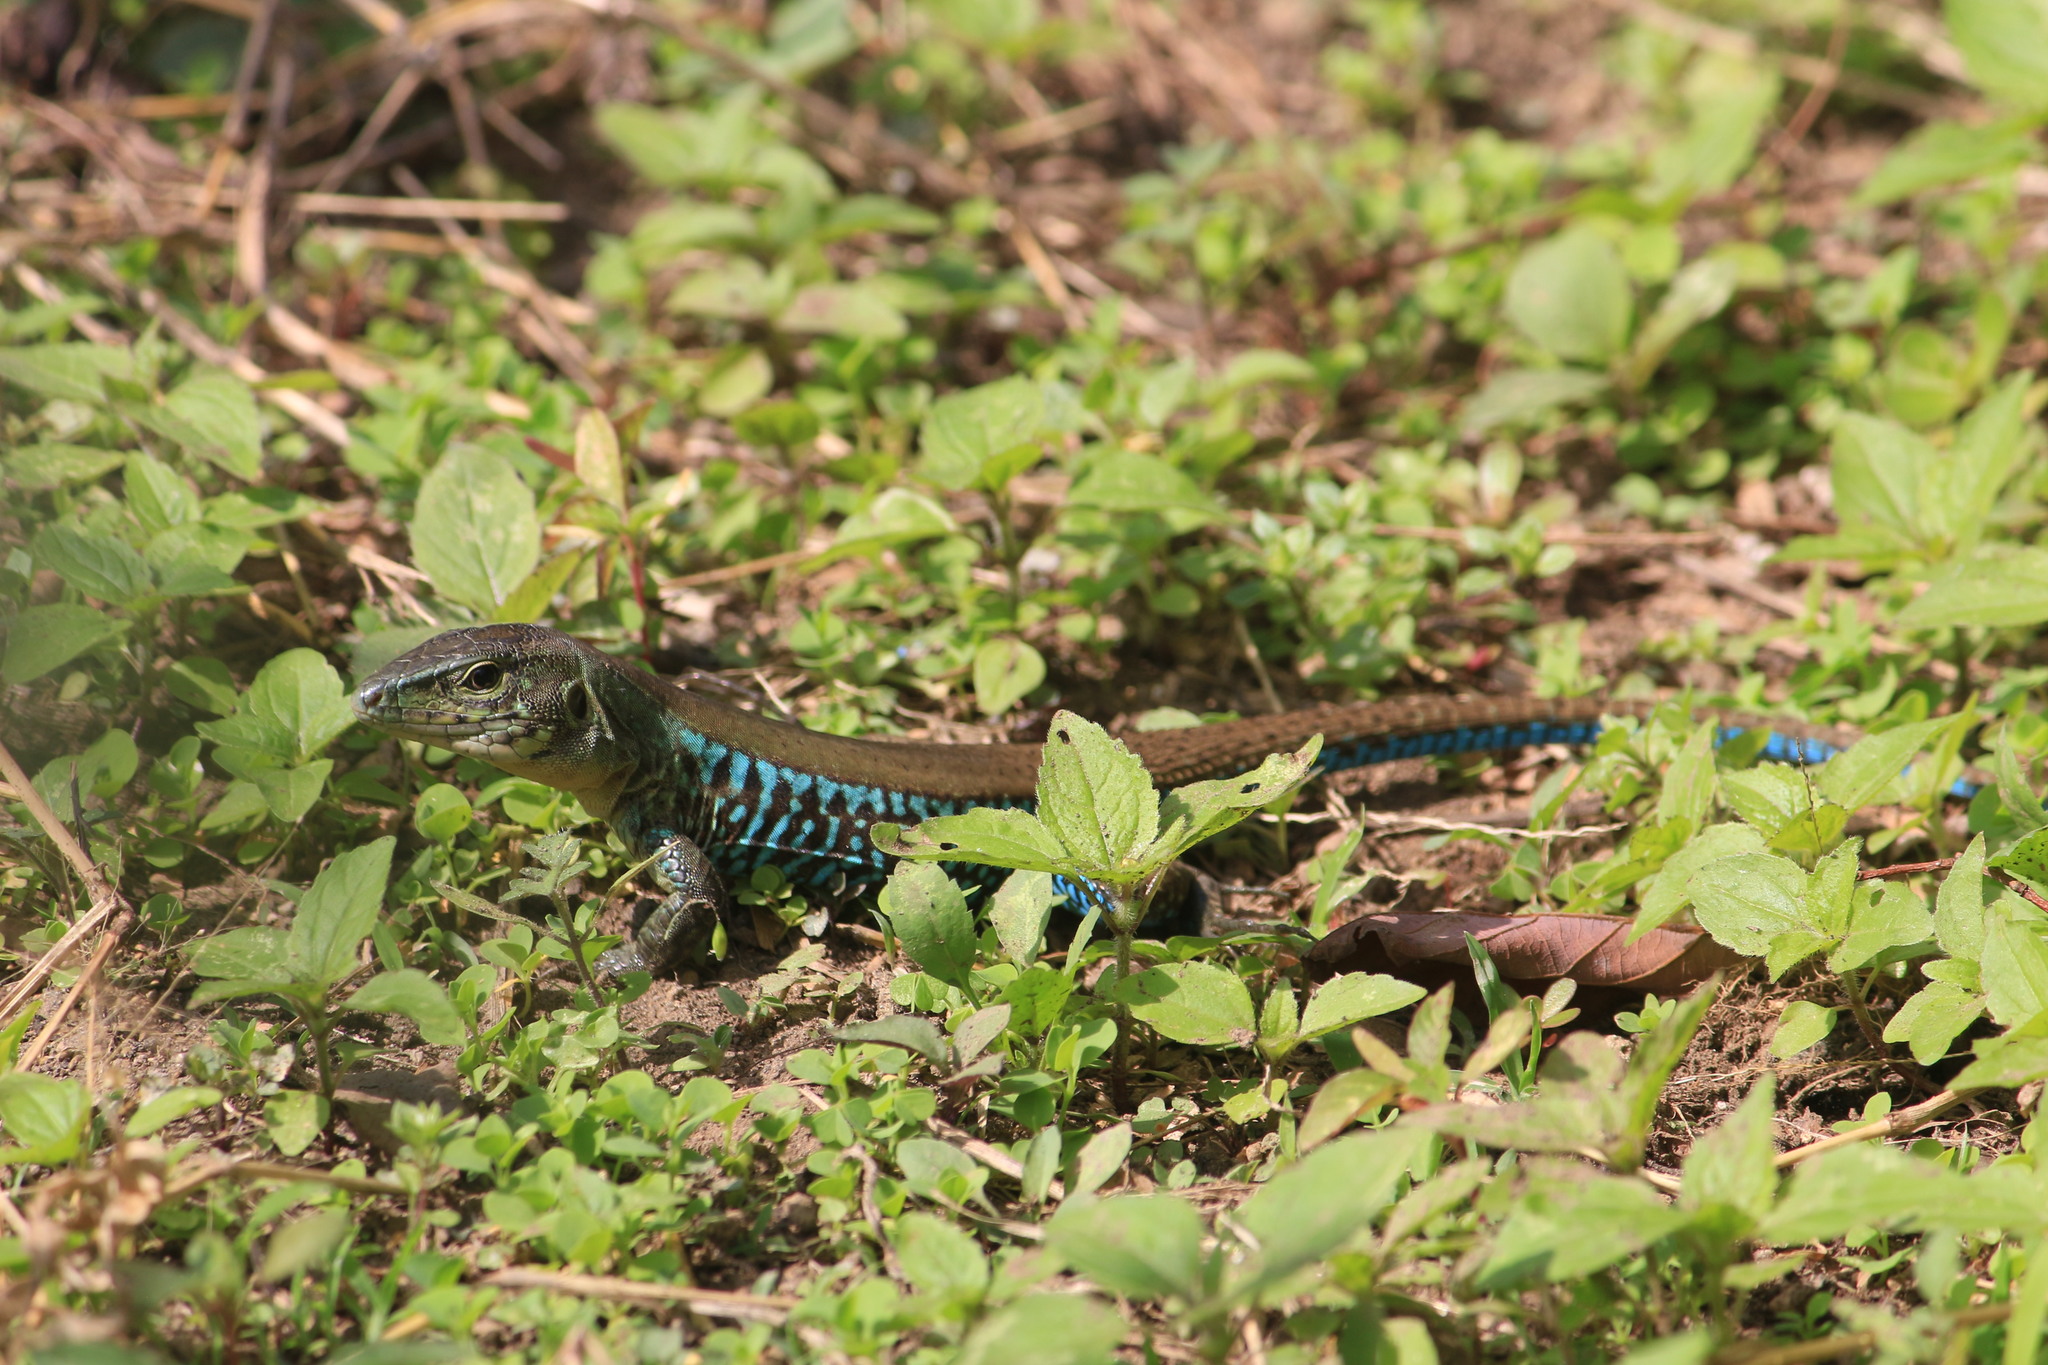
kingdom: Animalia
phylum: Chordata
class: Squamata
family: Teiidae
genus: Holcosus
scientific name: Holcosus undulatus
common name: Rainbow ameiva
